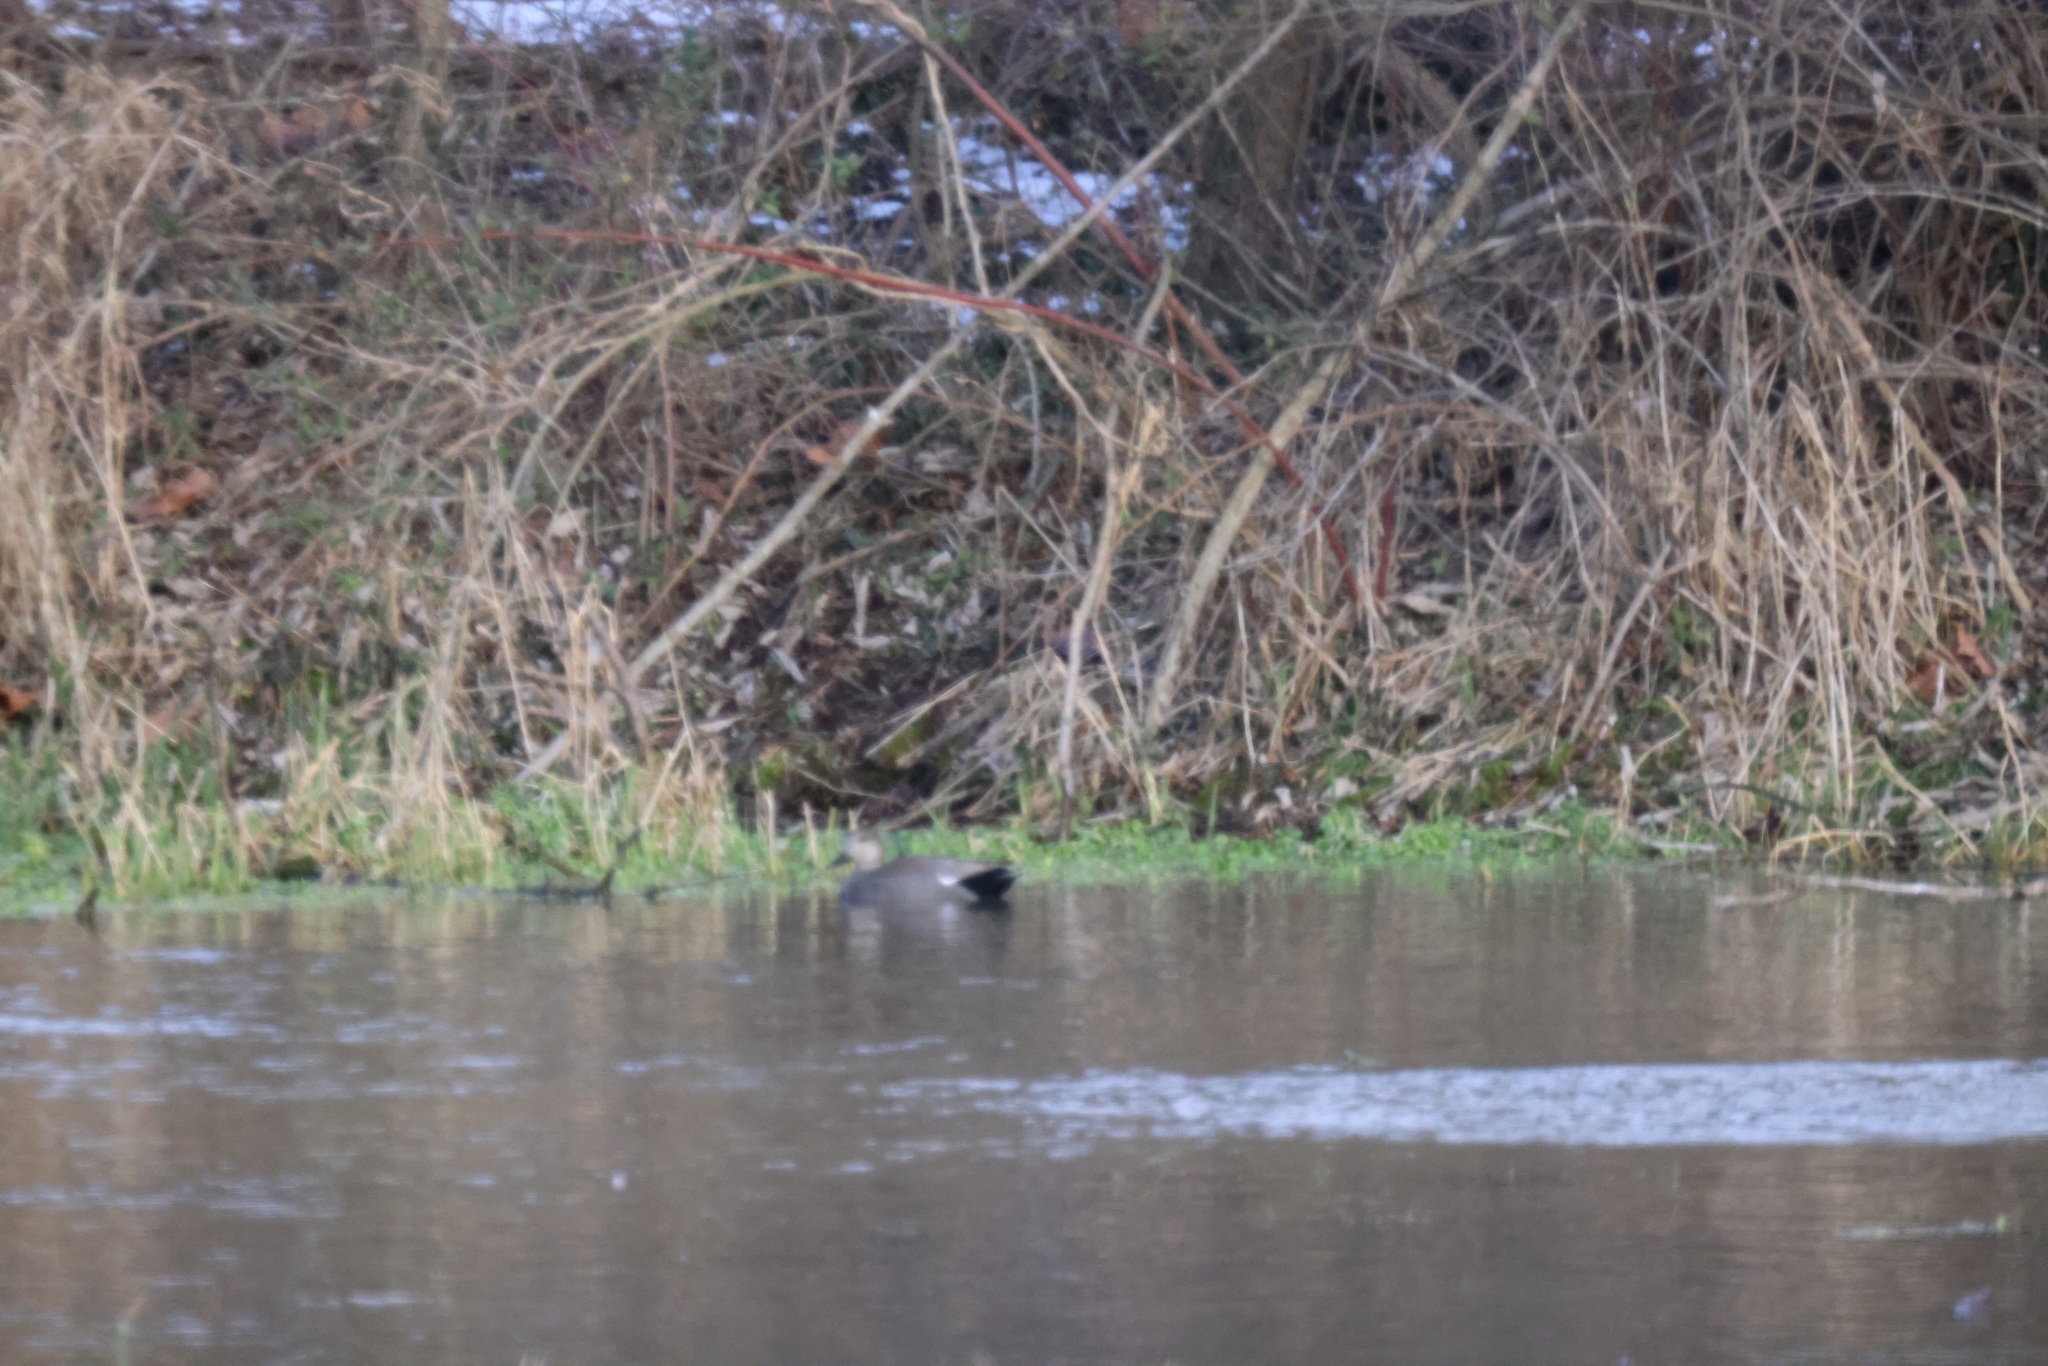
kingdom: Animalia
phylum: Chordata
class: Aves
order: Anseriformes
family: Anatidae
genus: Mareca
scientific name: Mareca strepera
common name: Gadwall
